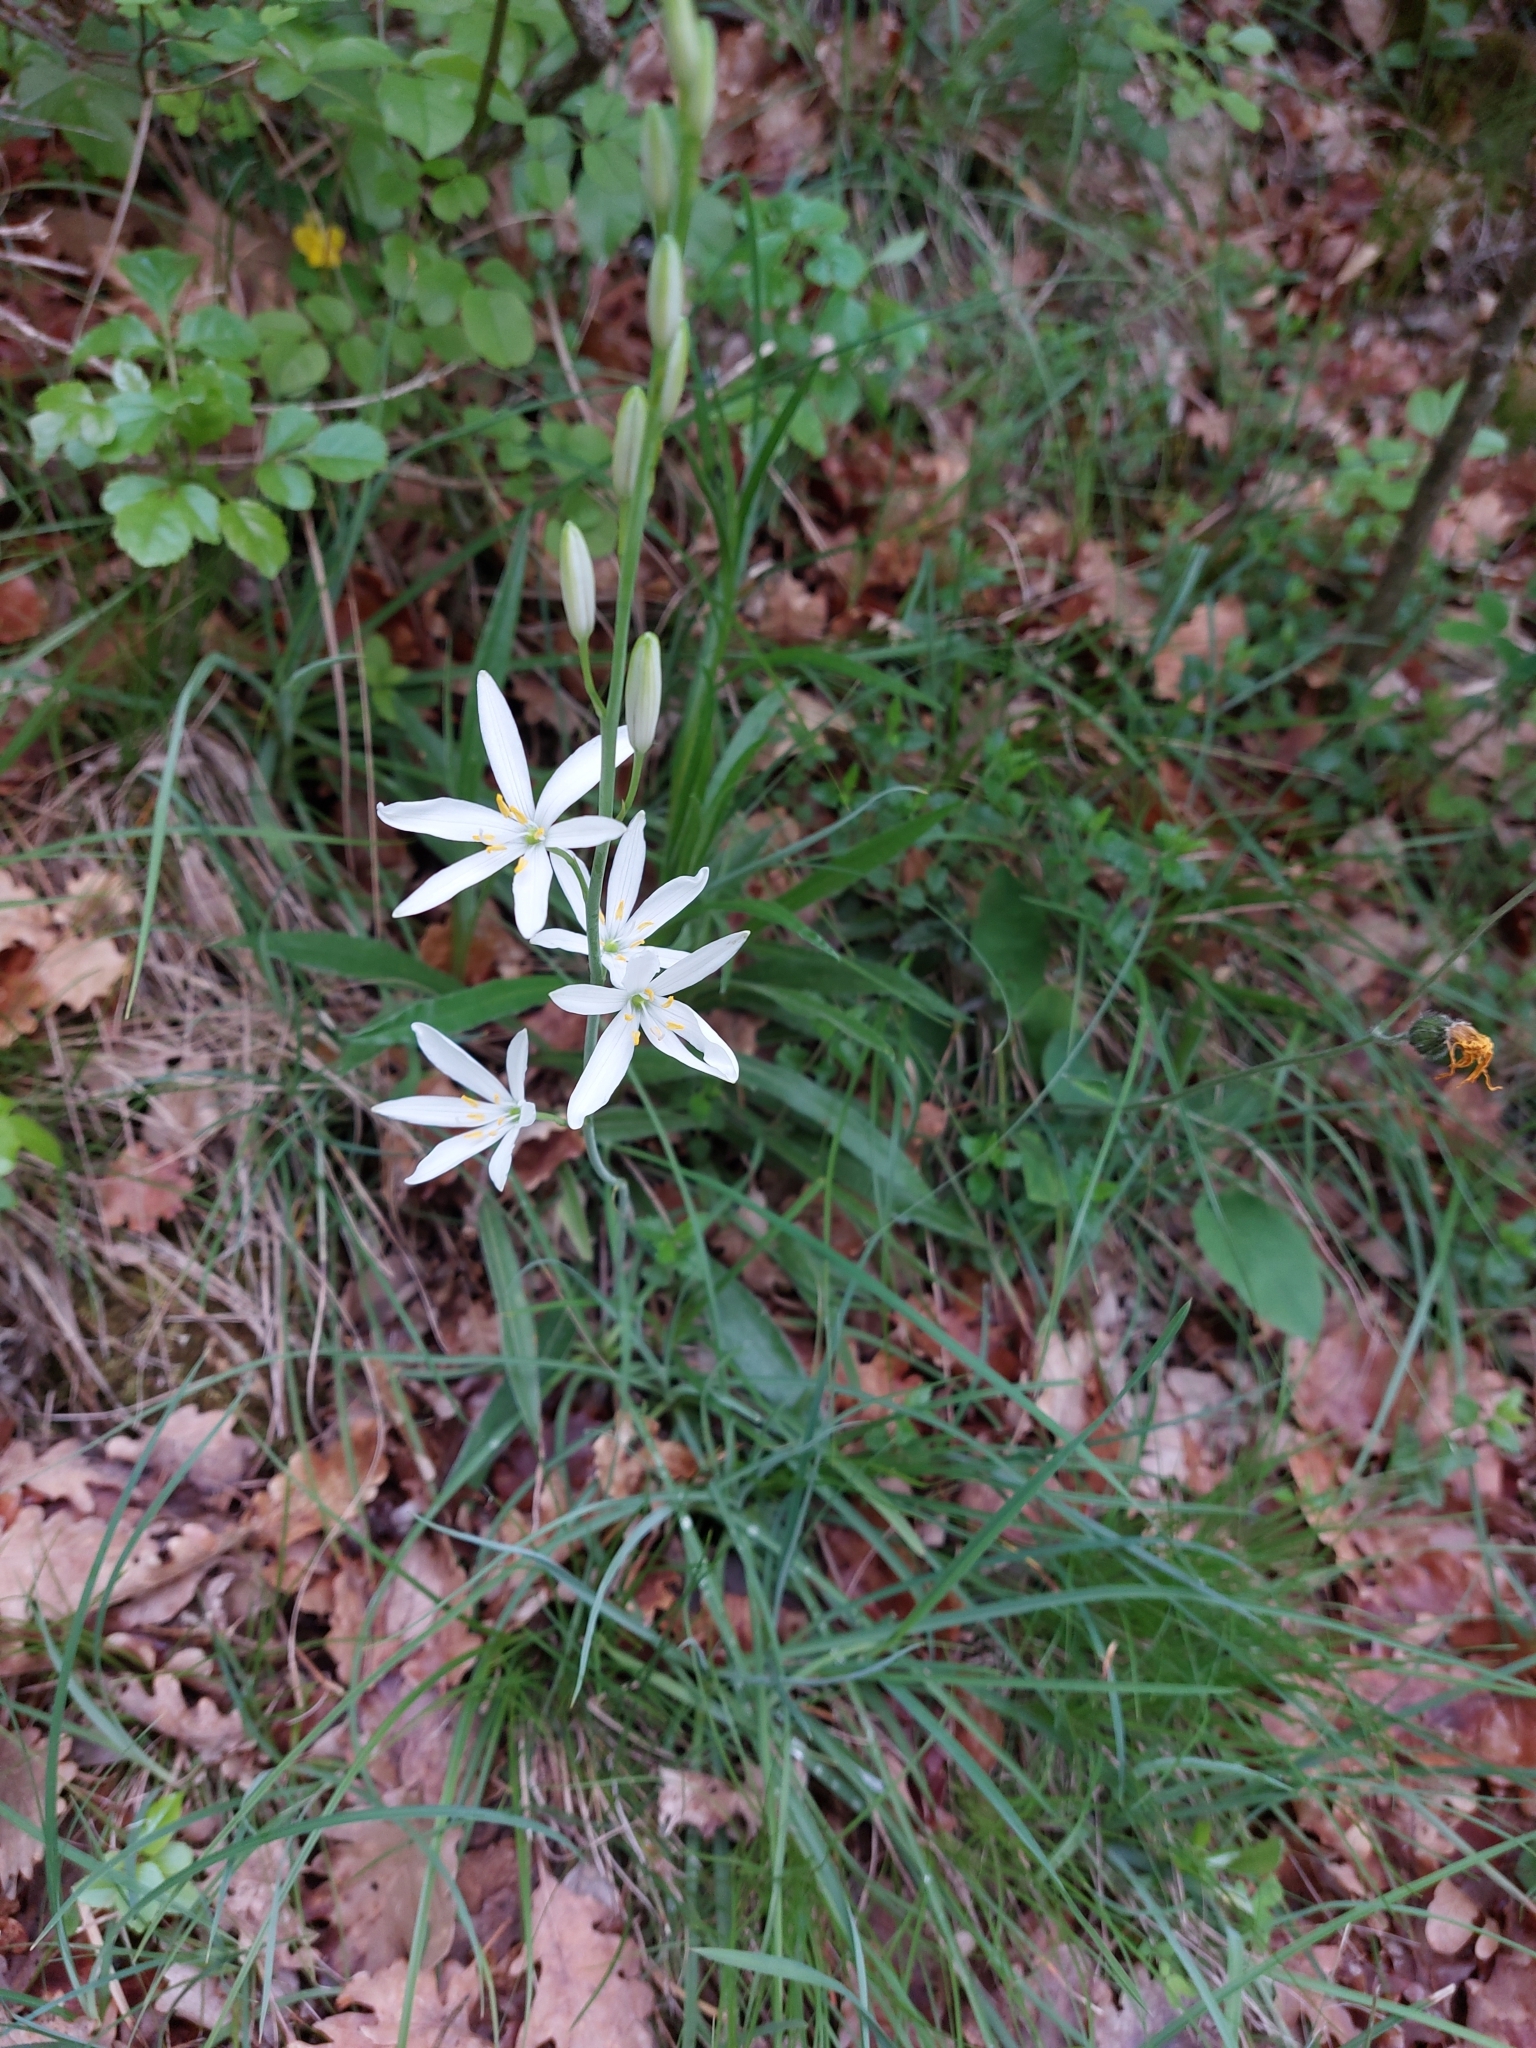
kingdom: Plantae
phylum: Tracheophyta
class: Liliopsida
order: Asparagales
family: Asparagaceae
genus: Anthericum
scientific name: Anthericum liliago
